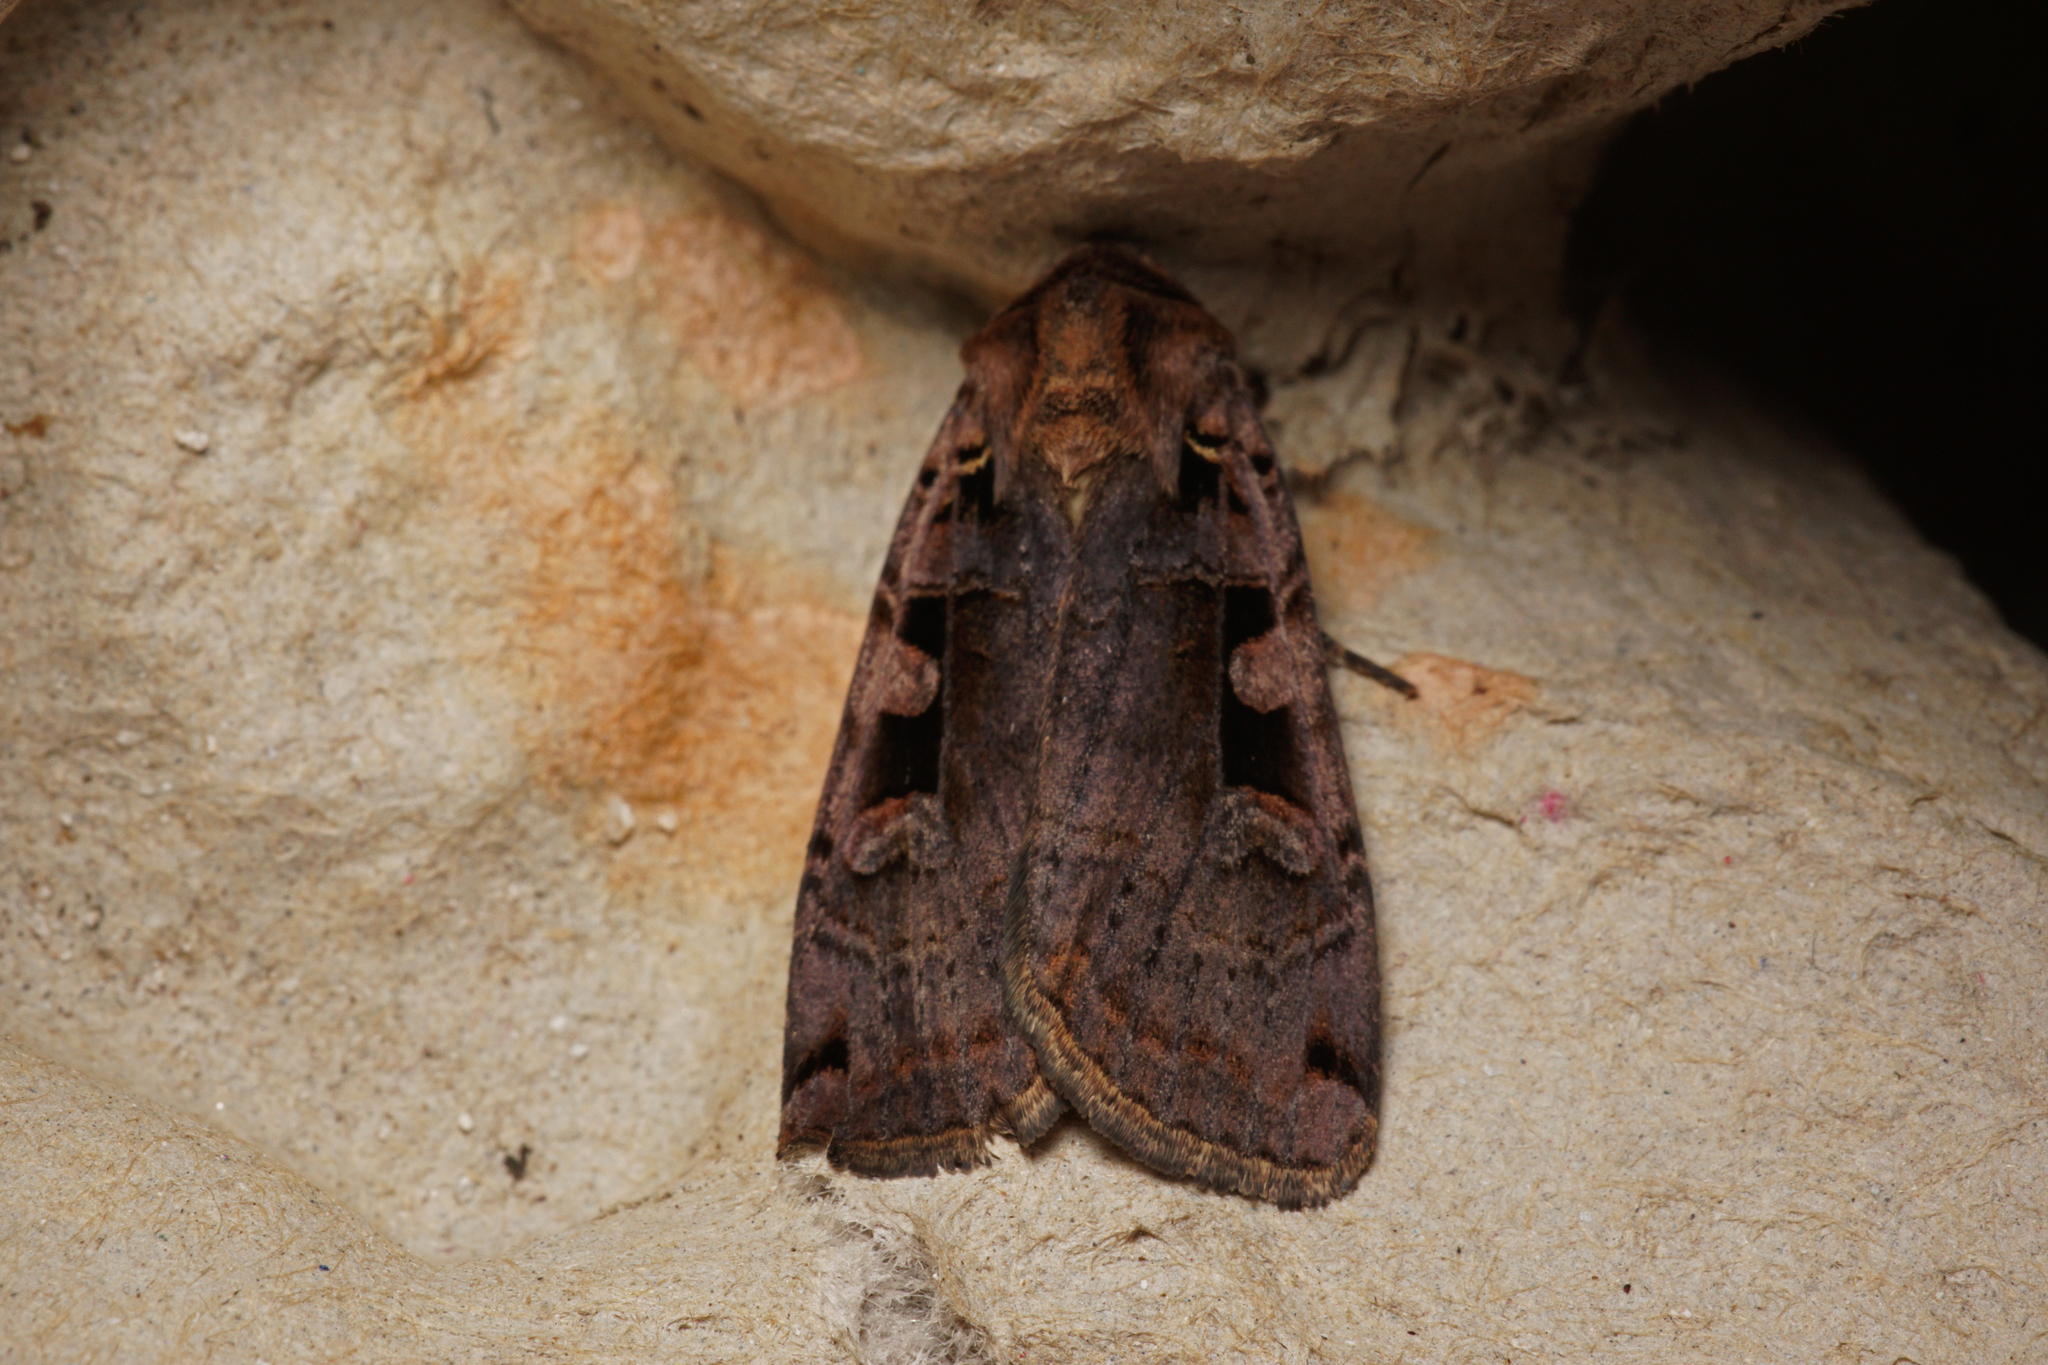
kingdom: Animalia
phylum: Arthropoda
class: Insecta
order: Lepidoptera
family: Noctuidae
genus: Xestia
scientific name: Xestia ditrapezium
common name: Triple-spotted clay
